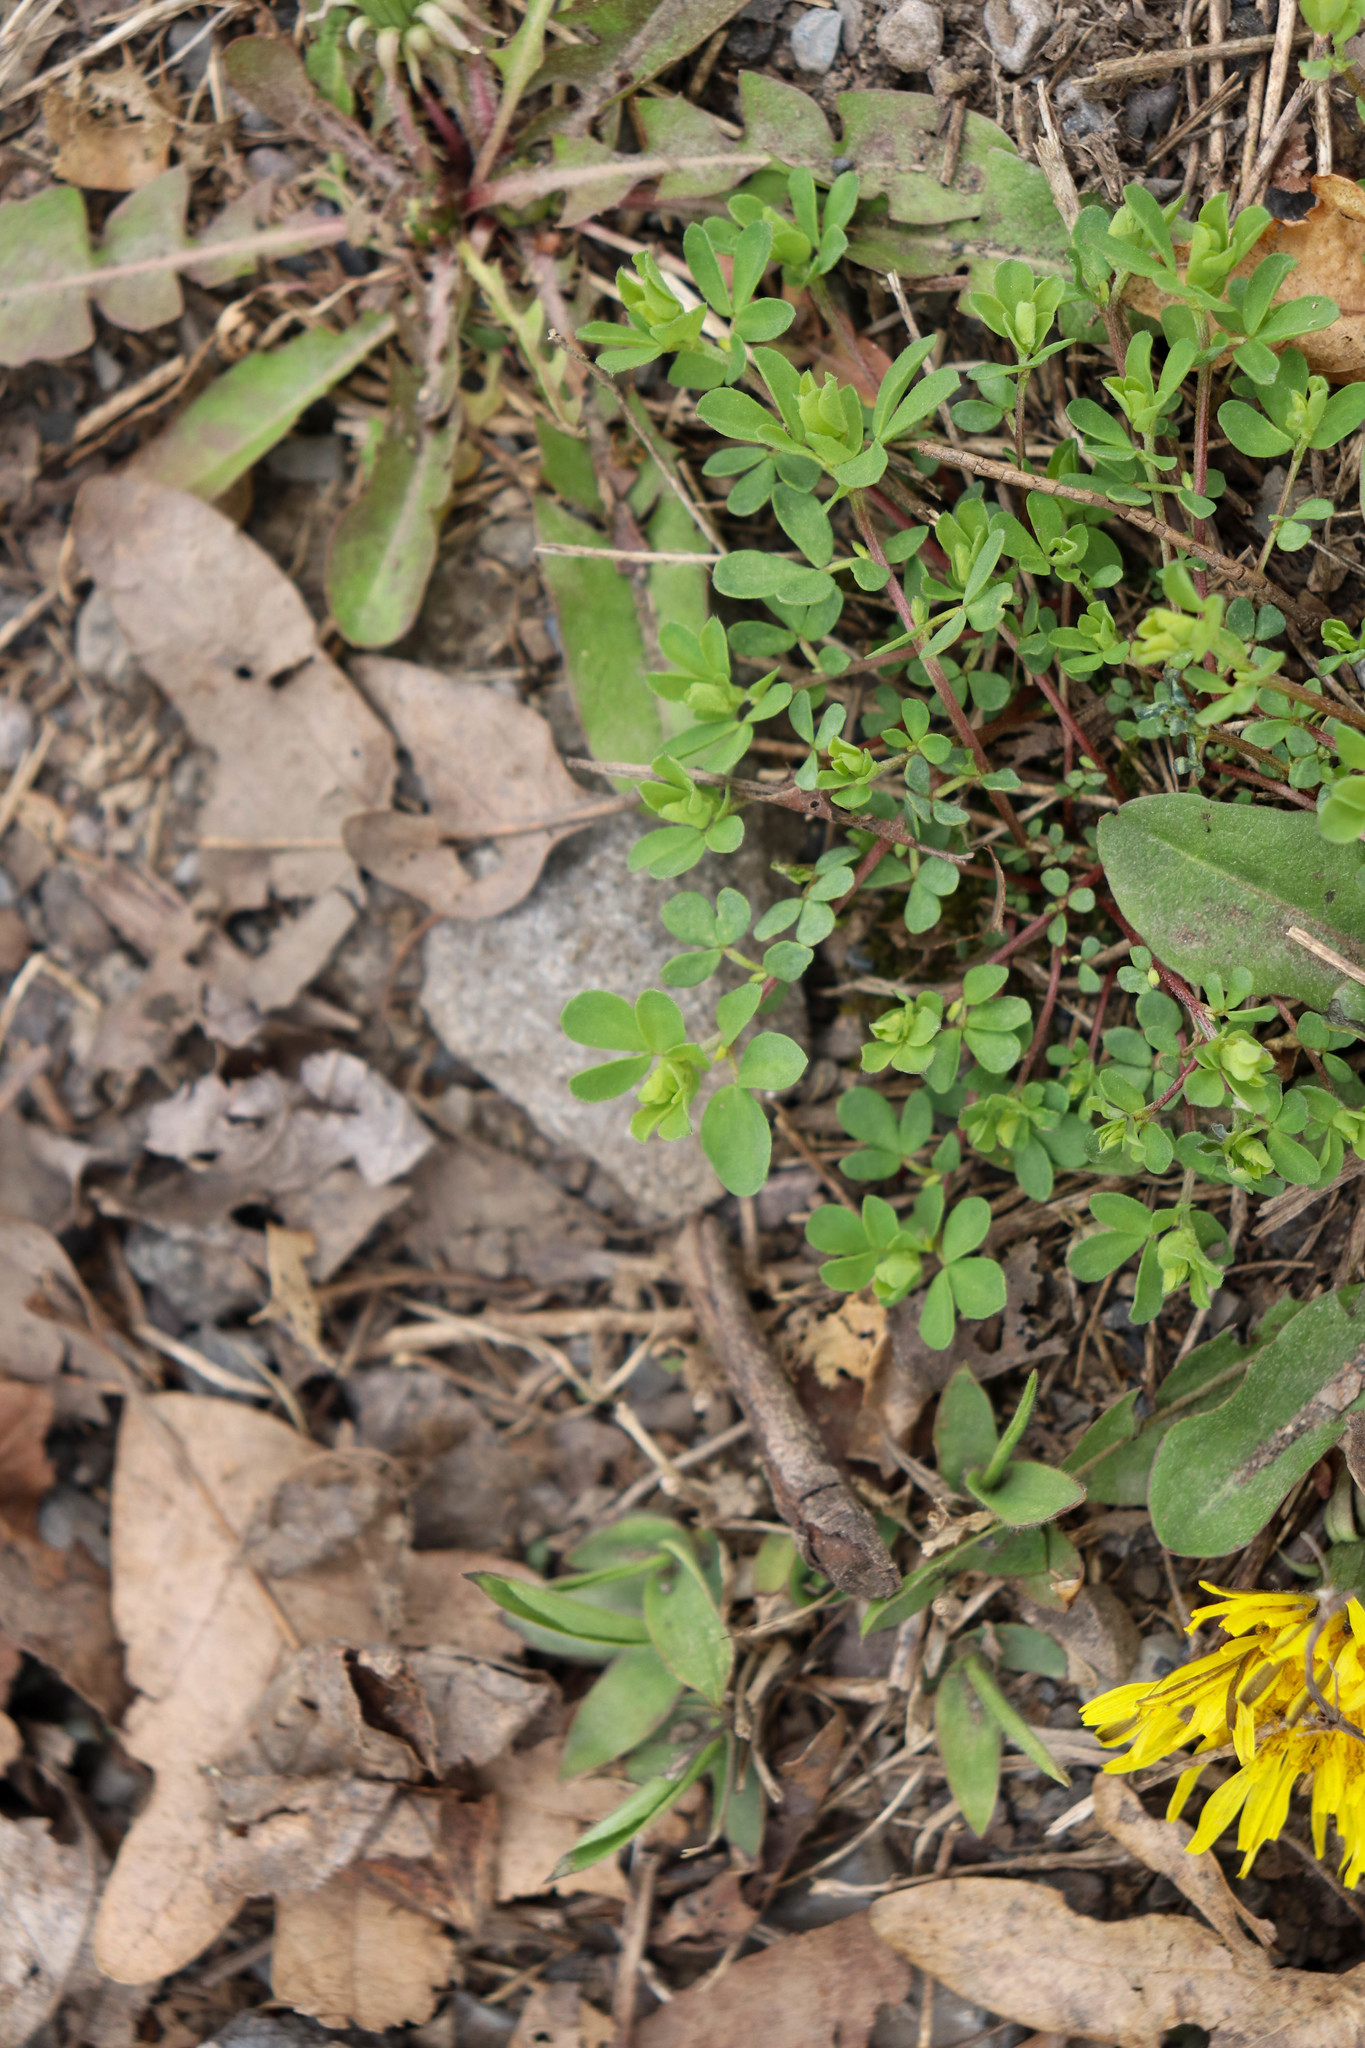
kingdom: Plantae
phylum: Tracheophyta
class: Magnoliopsida
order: Fabales
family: Fabaceae
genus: Lotus
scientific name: Lotus corniculatus
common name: Common bird's-foot-trefoil
